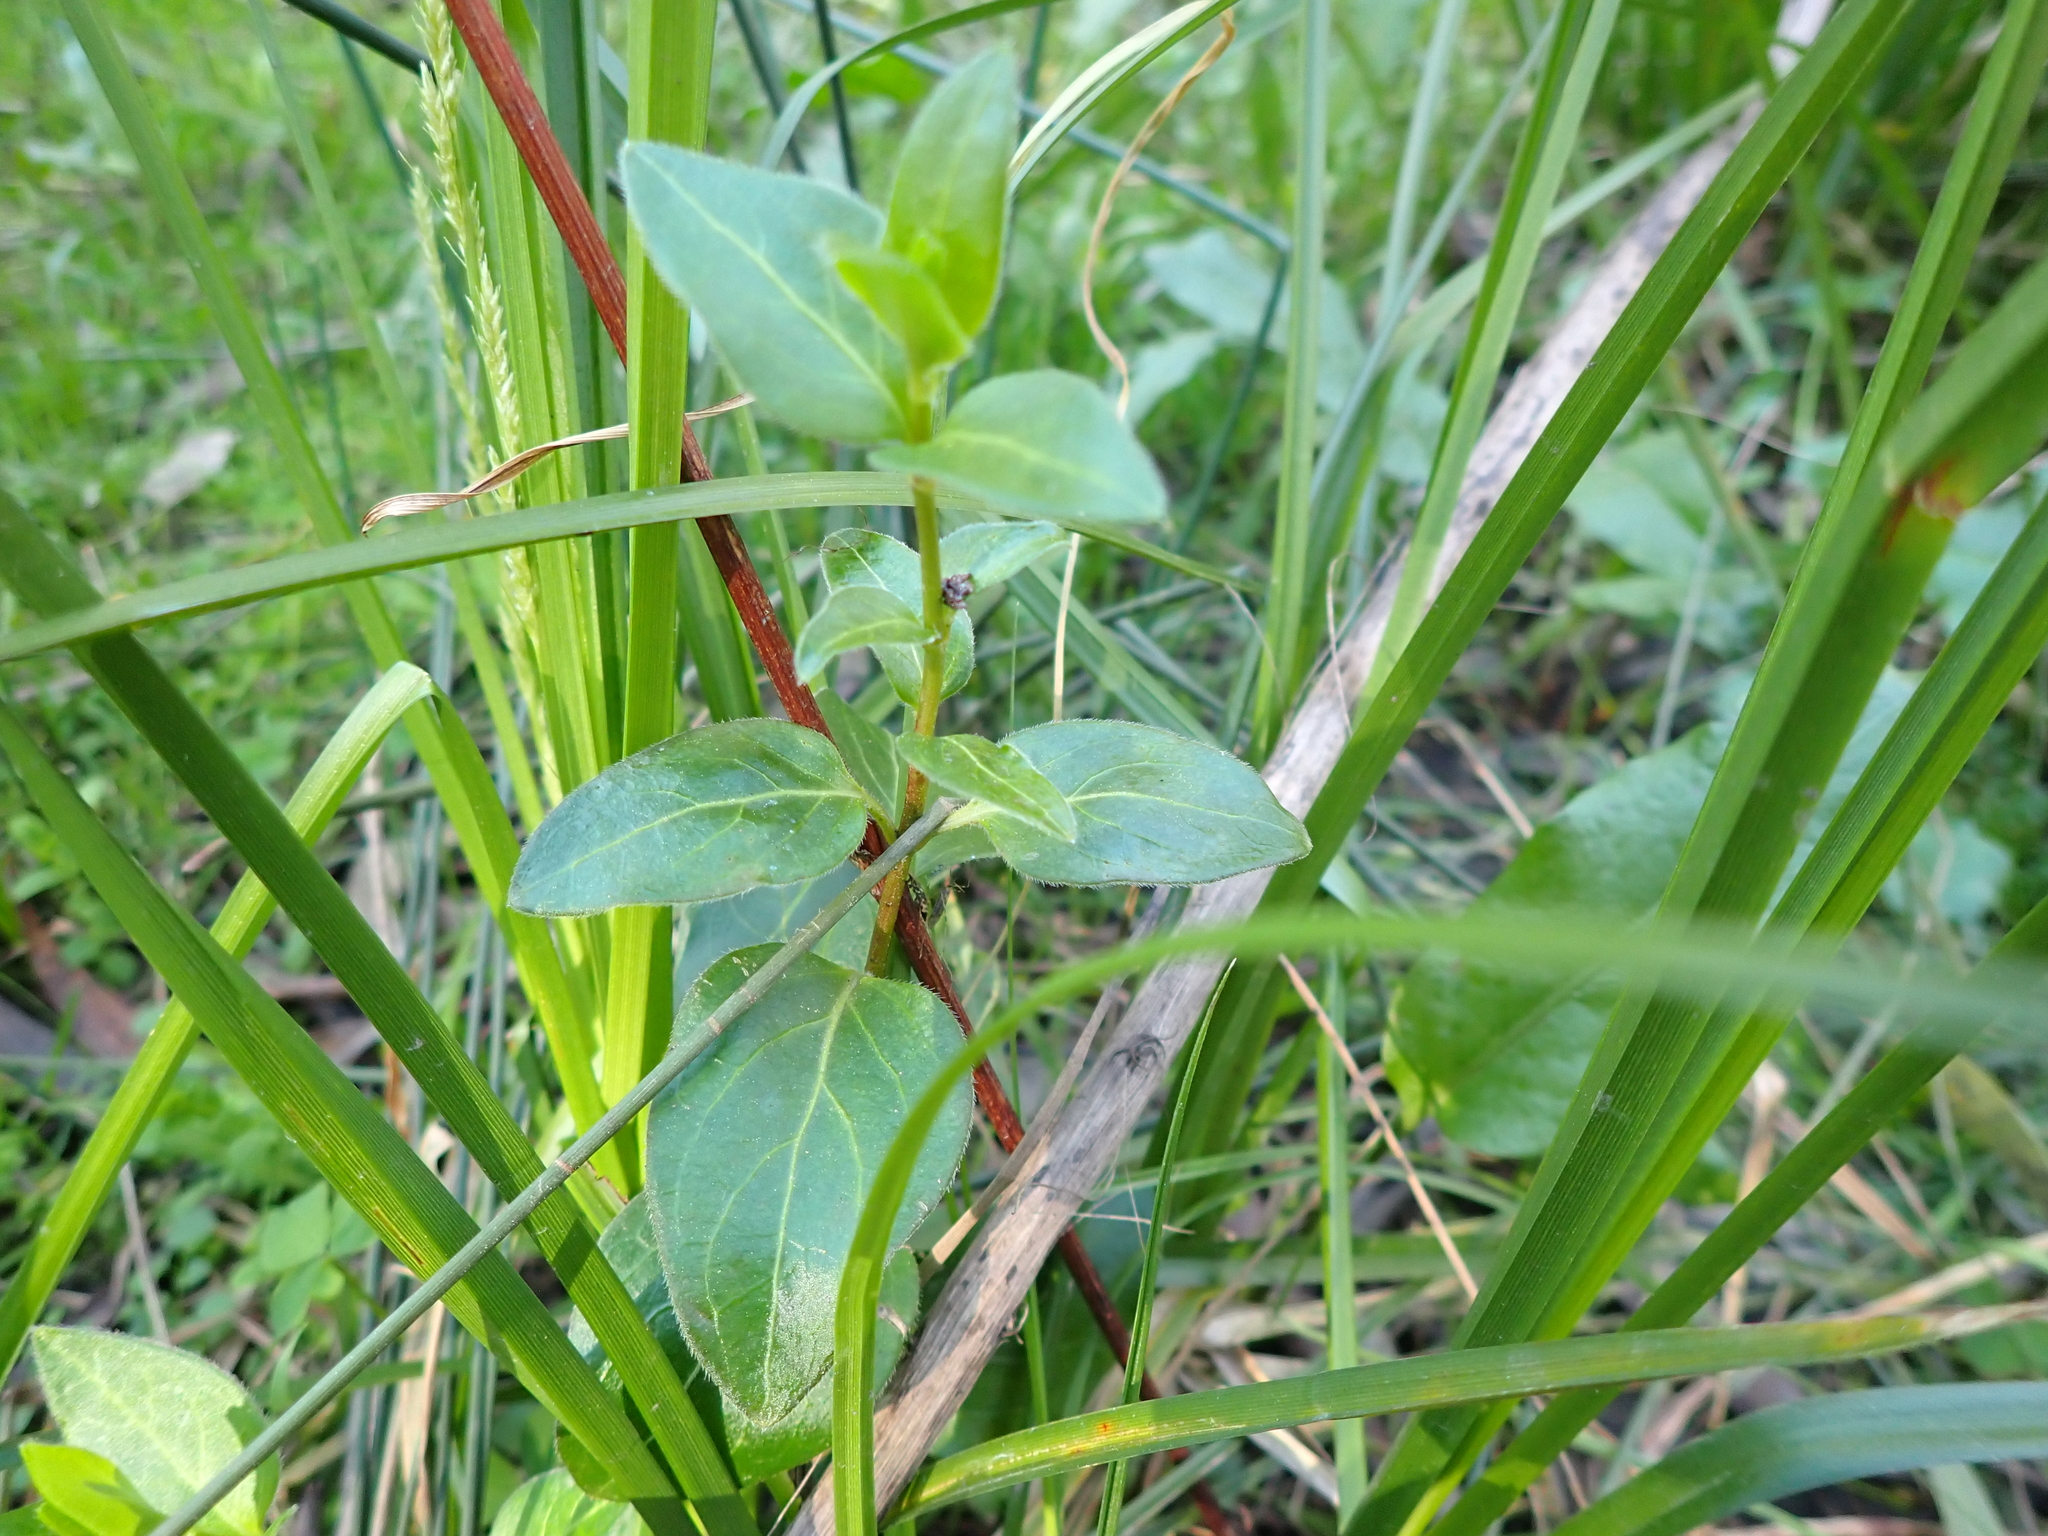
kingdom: Plantae
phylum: Tracheophyta
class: Magnoliopsida
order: Gentianales
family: Apocynaceae
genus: Vinca
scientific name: Vinca major
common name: Greater periwinkle
